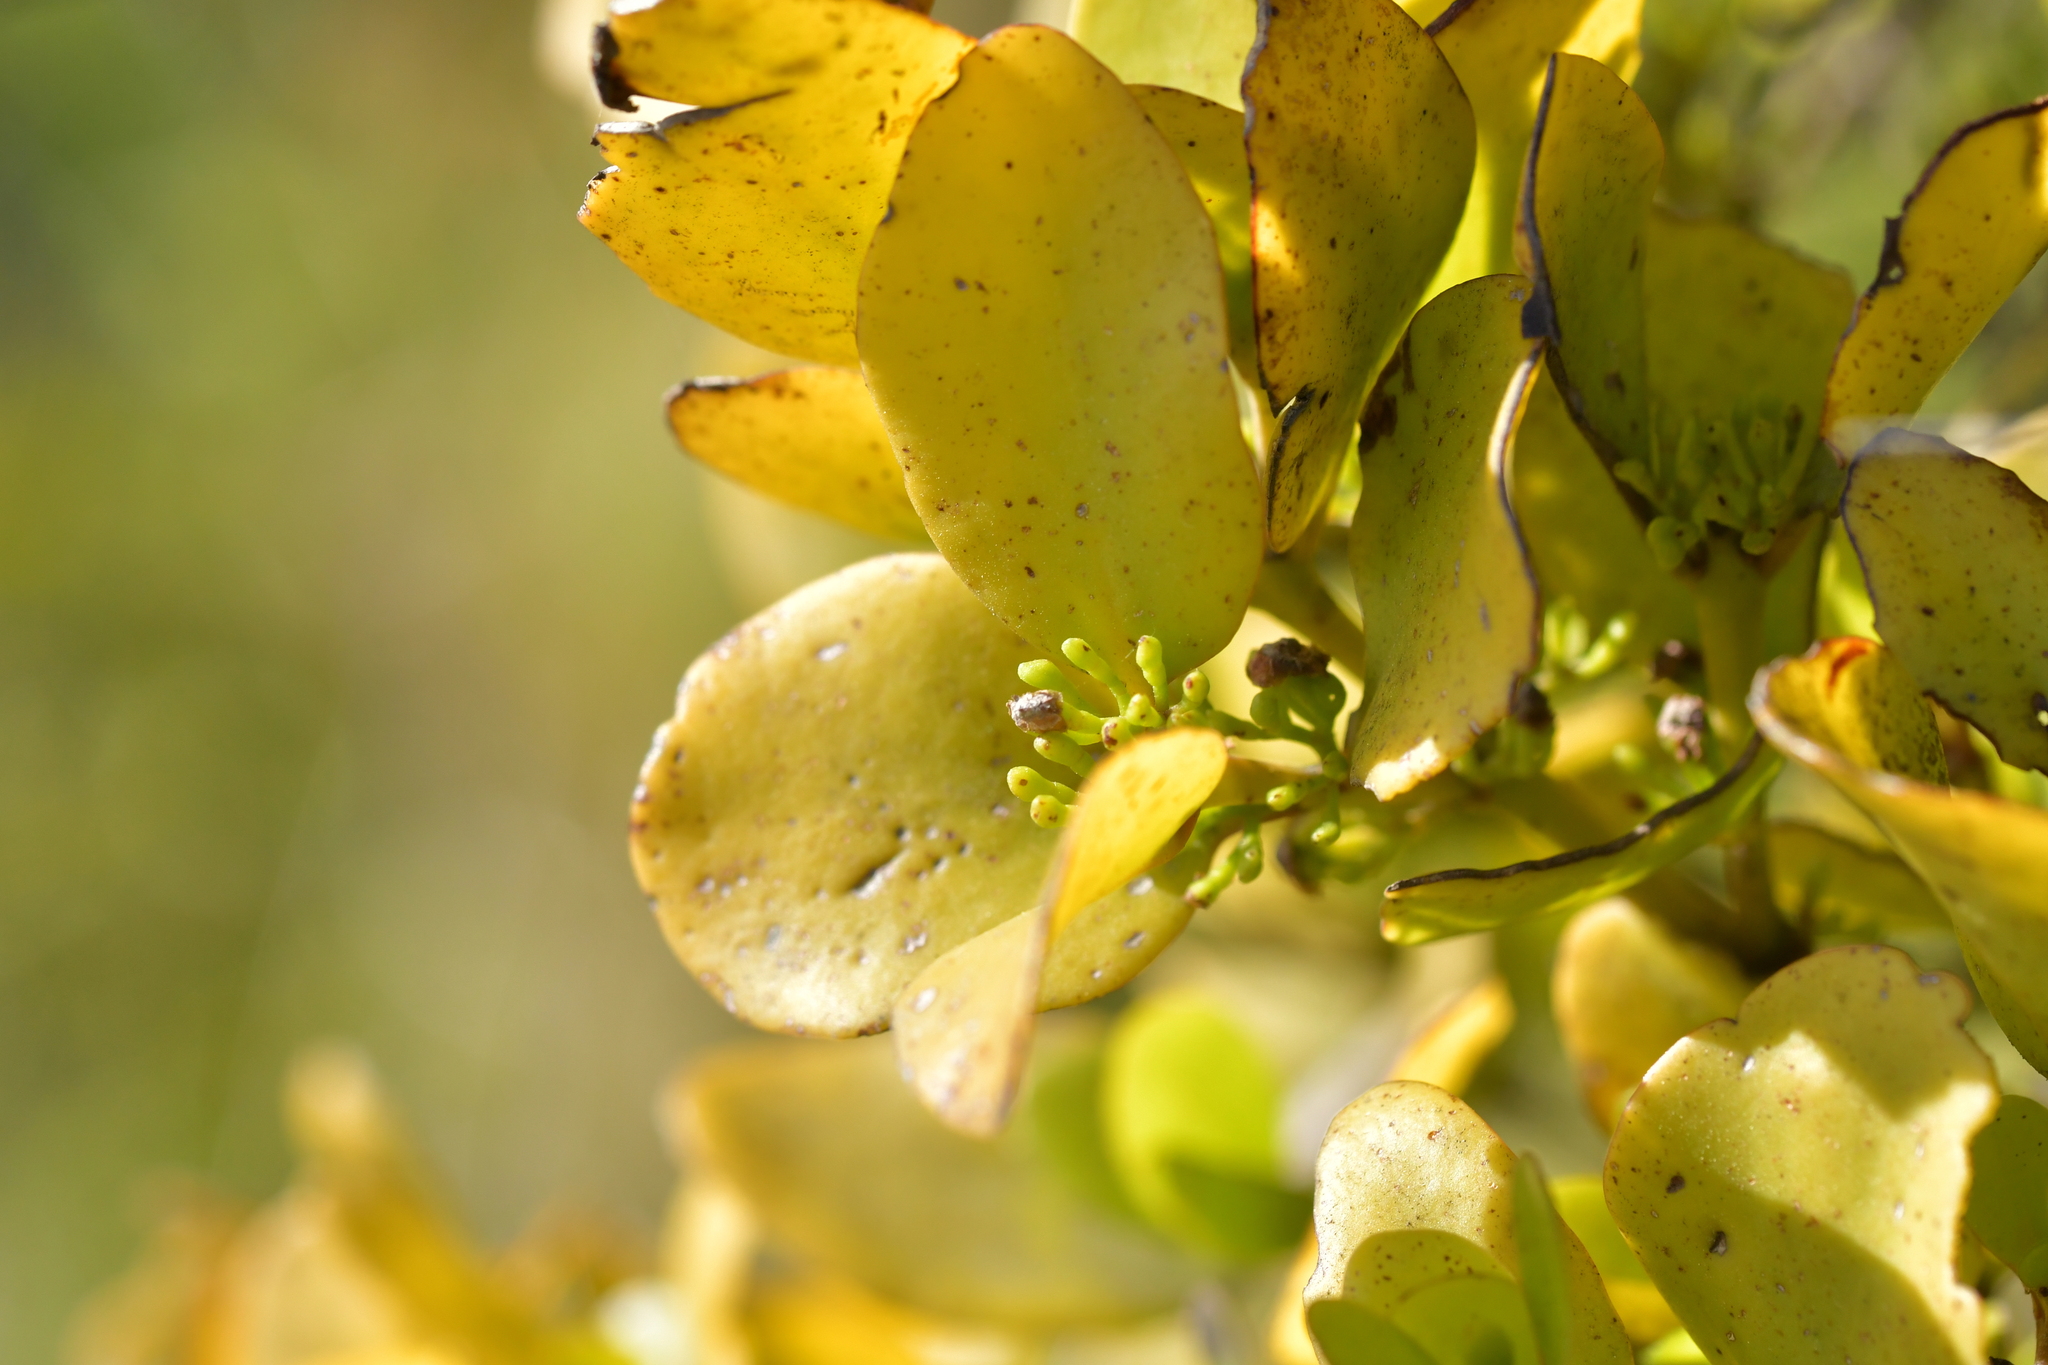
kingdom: Plantae
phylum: Tracheophyta
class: Magnoliopsida
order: Santalales
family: Loranthaceae
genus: Ileostylus
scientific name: Ileostylus micranthus
